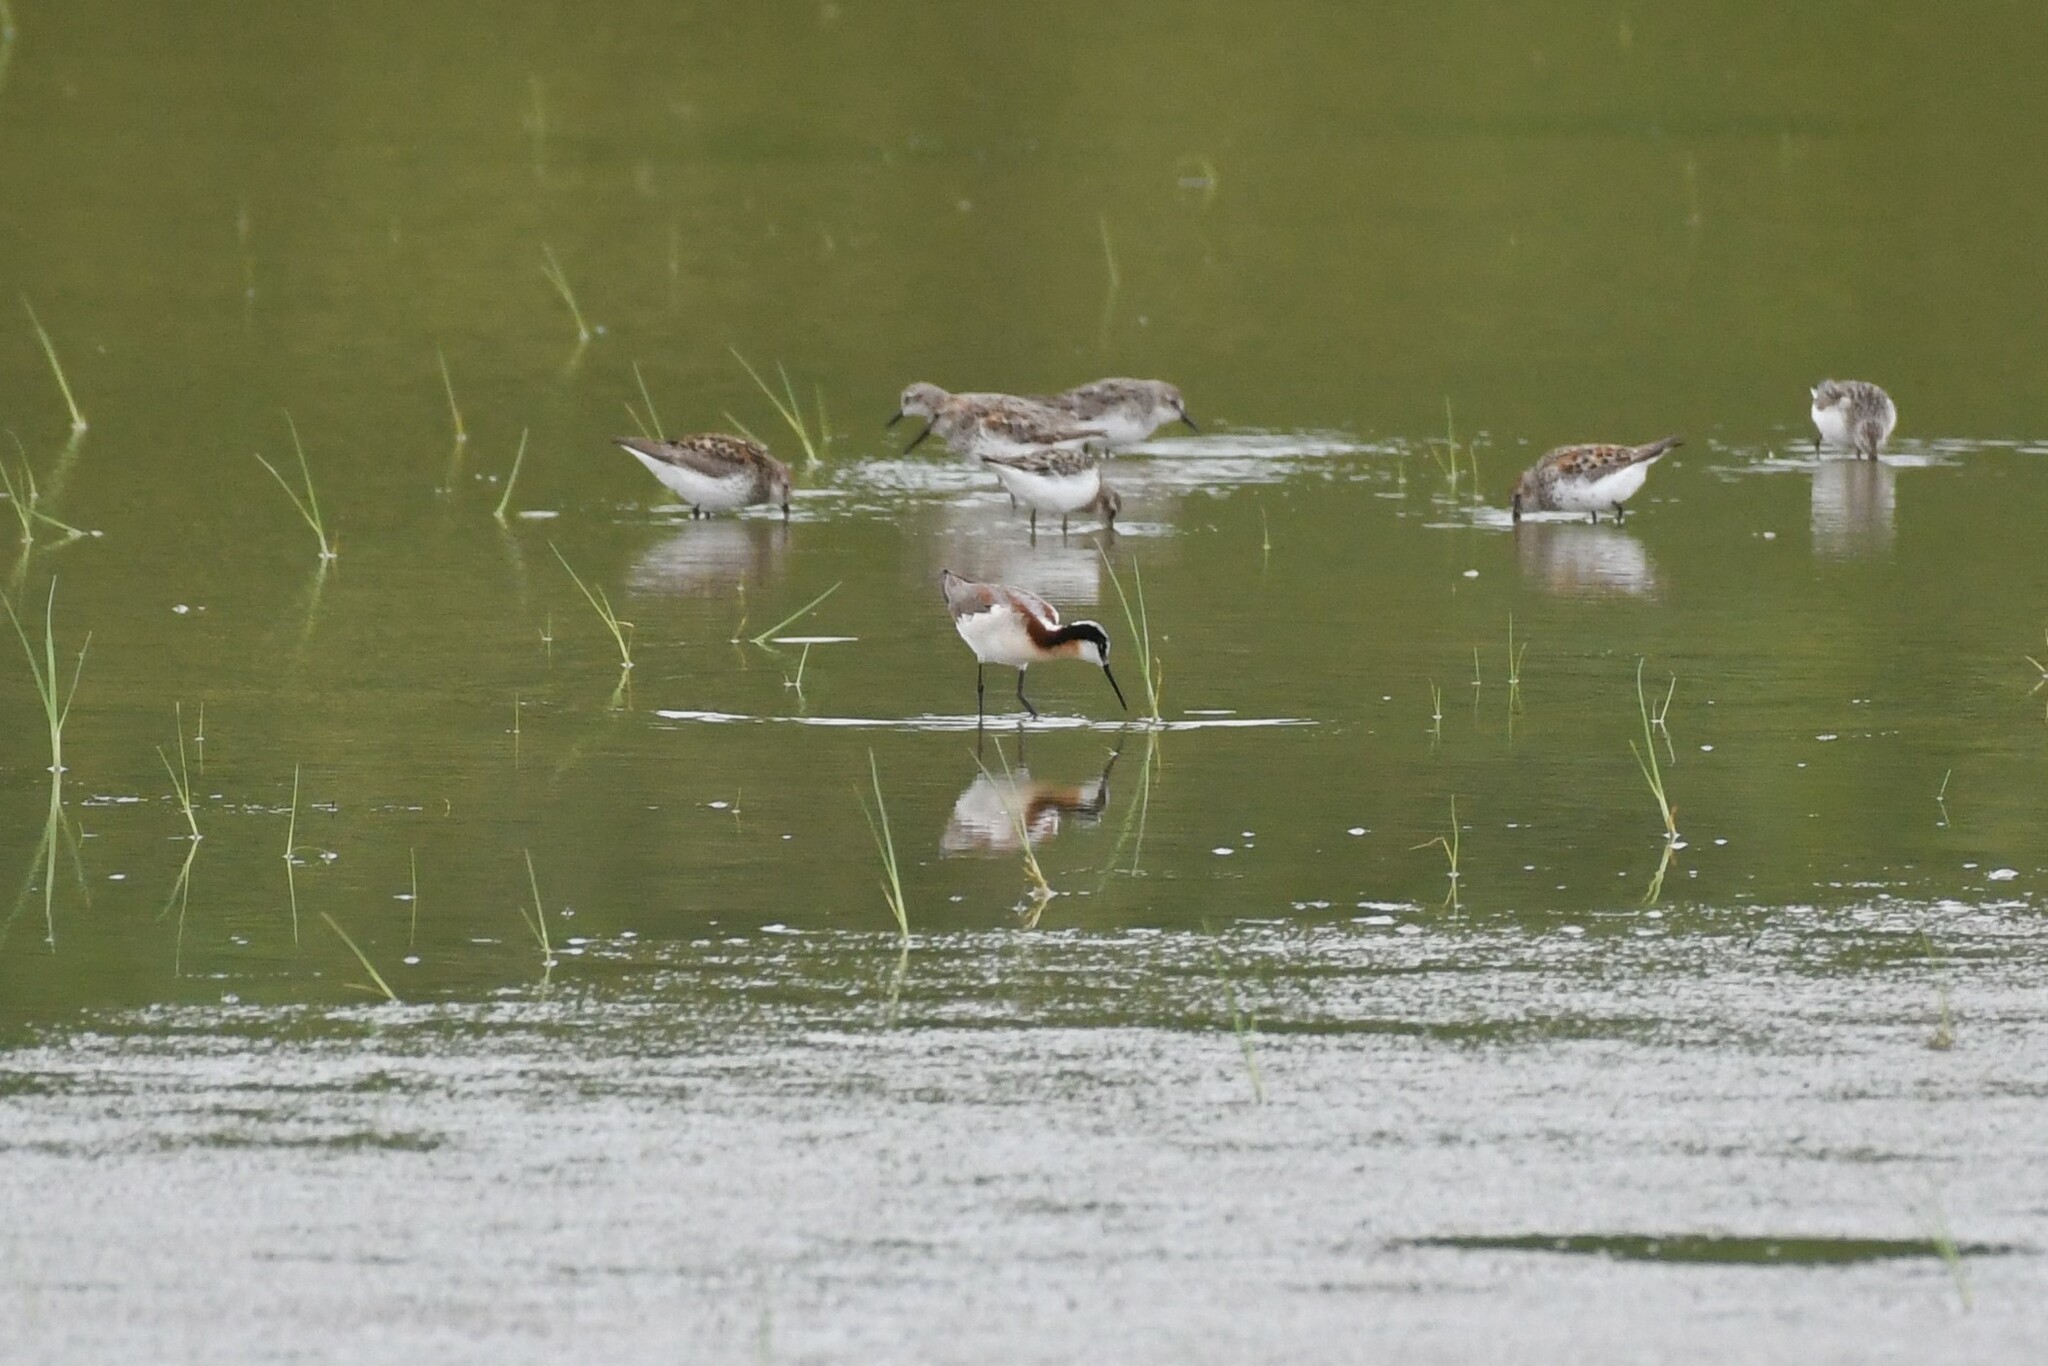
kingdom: Animalia
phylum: Chordata
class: Aves
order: Charadriiformes
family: Scolopacidae
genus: Phalaropus
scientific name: Phalaropus tricolor
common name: Wilson's phalarope
